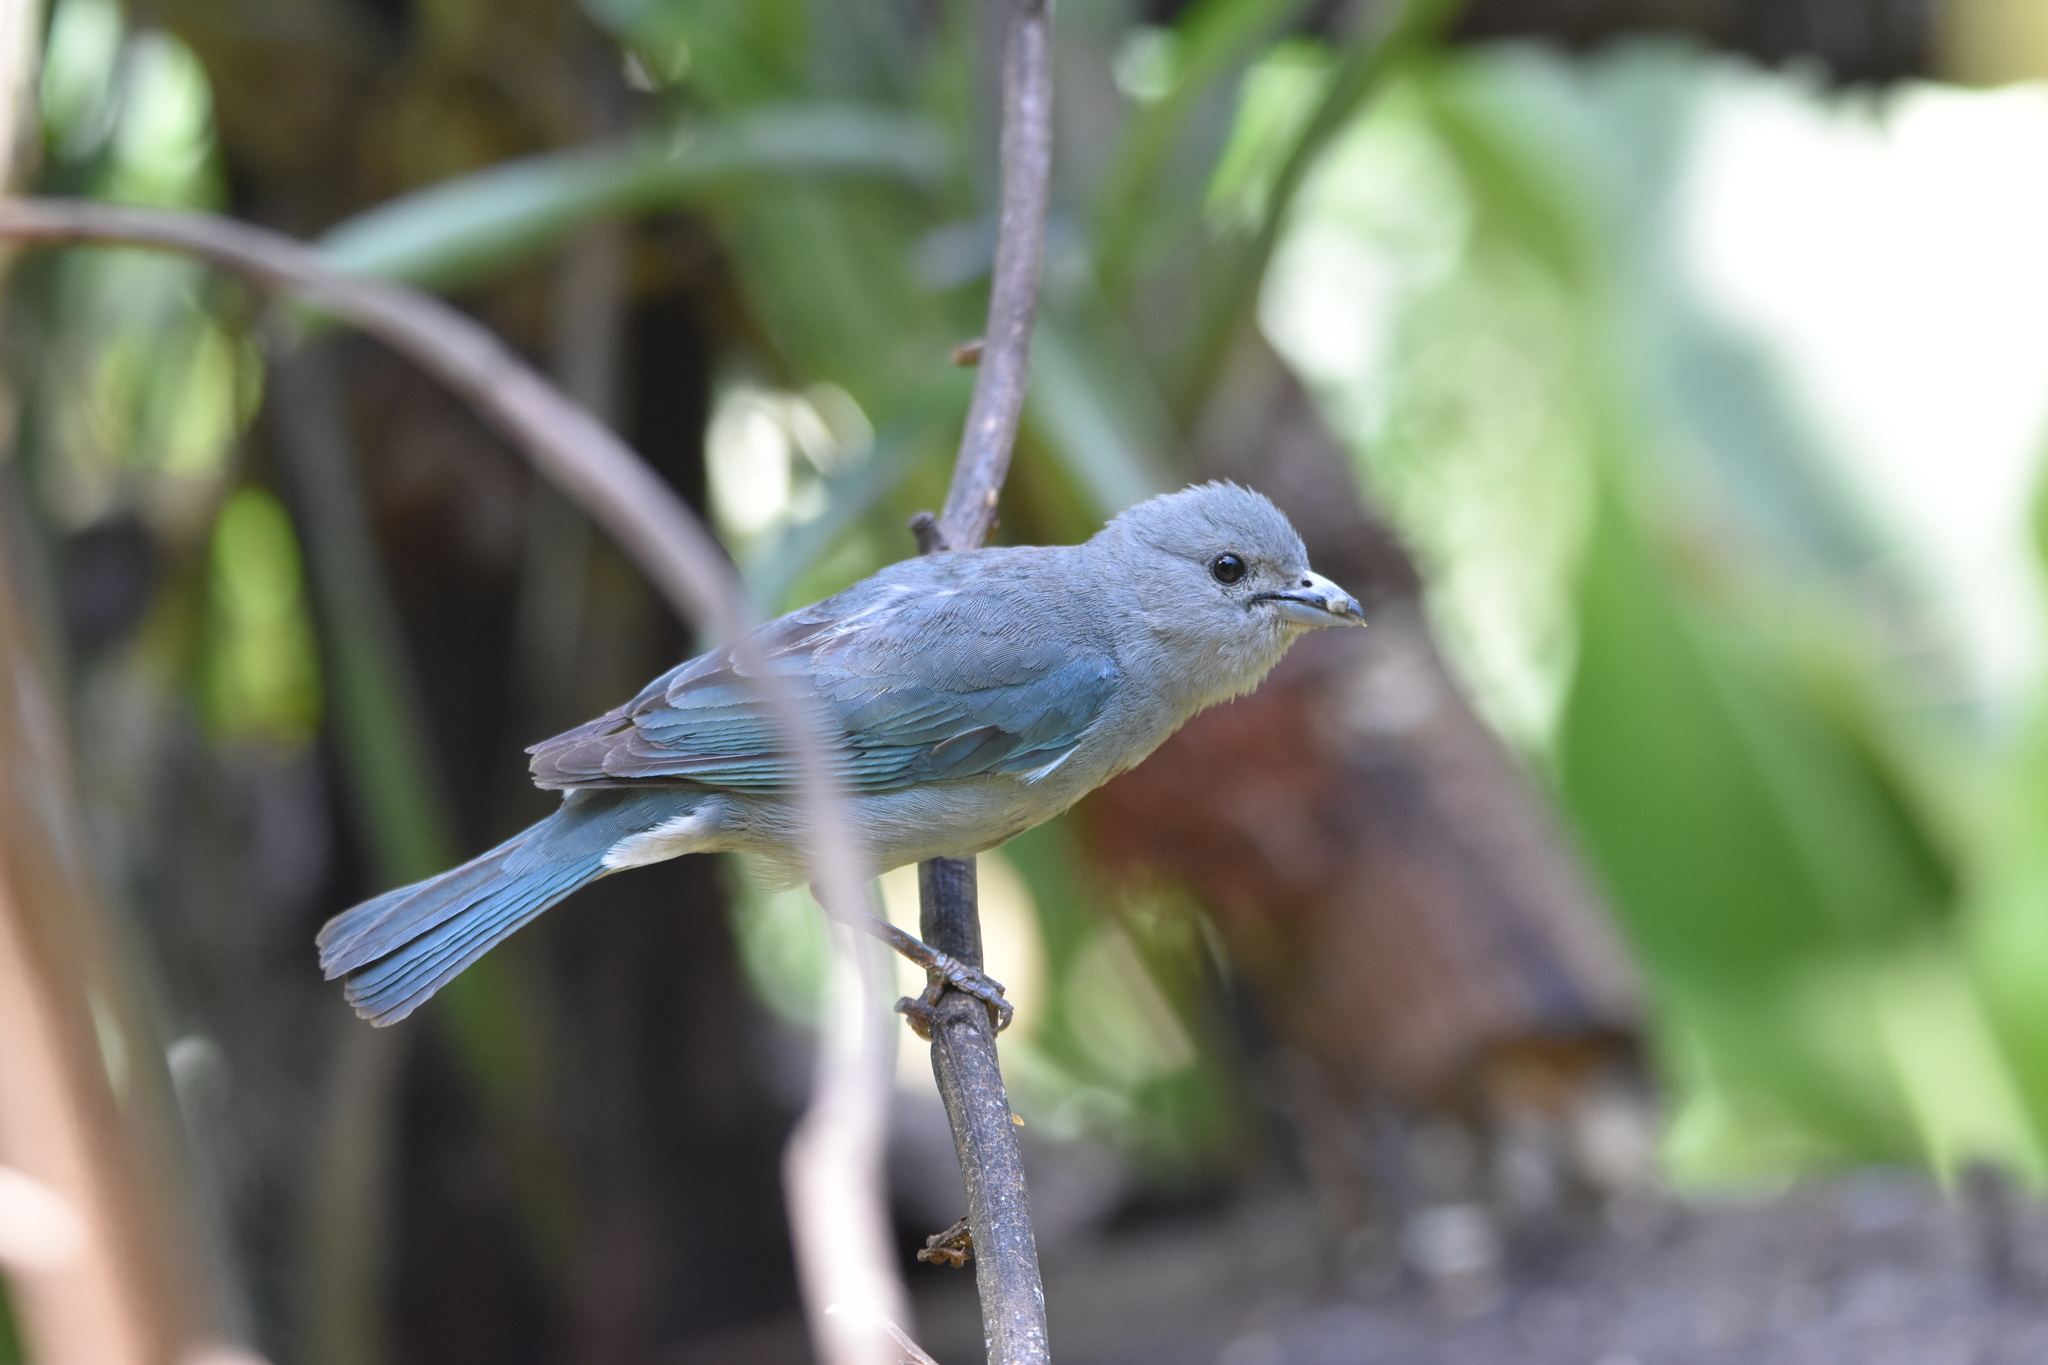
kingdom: Animalia
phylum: Chordata
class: Aves
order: Passeriformes
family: Thraupidae
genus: Thraupis
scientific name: Thraupis sayaca
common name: Sayaca tanager
